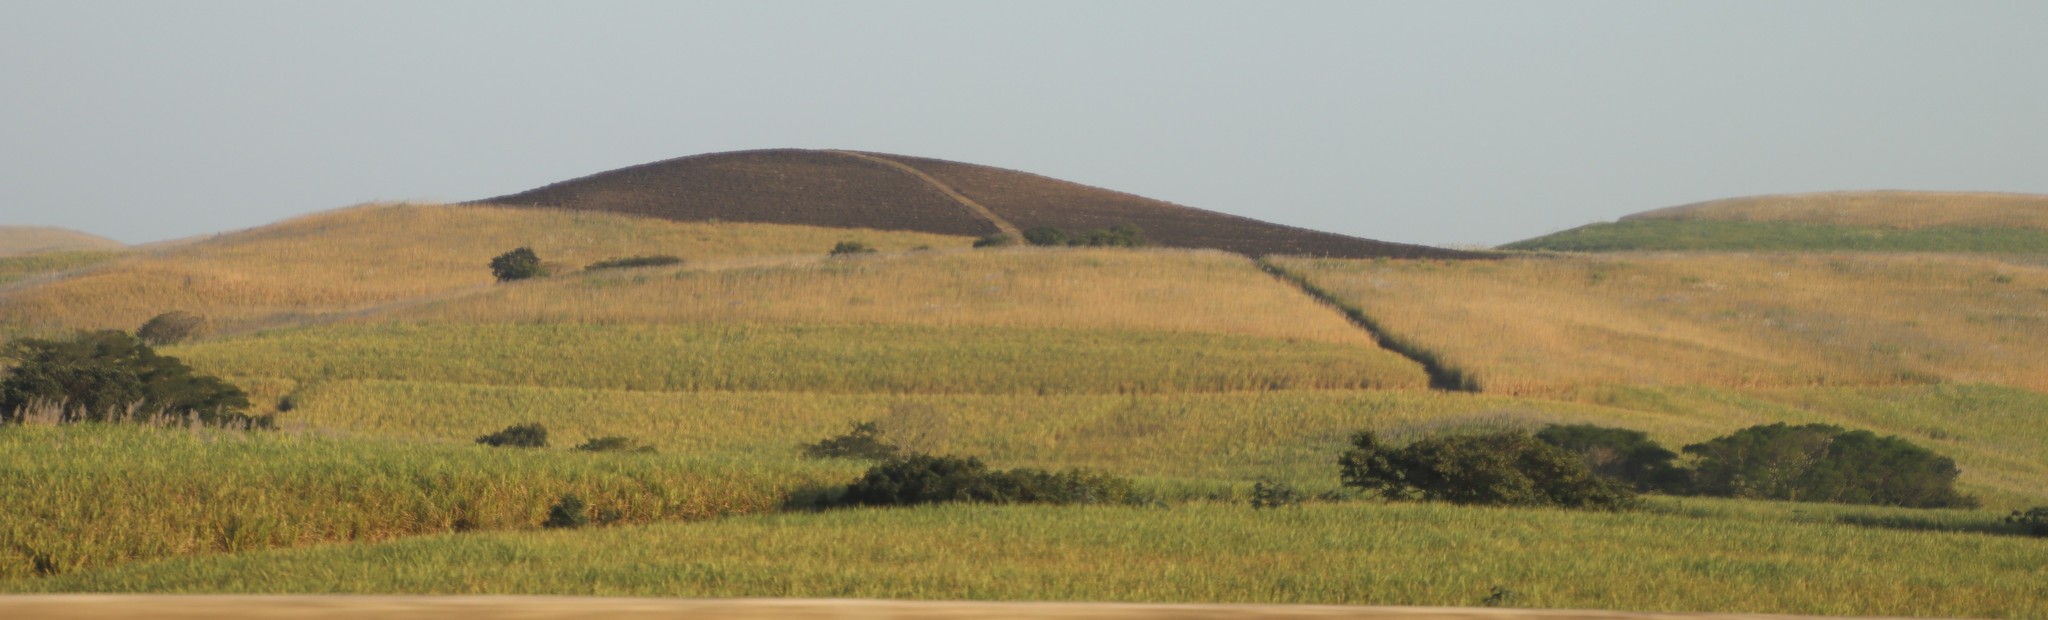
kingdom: Plantae
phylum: Tracheophyta
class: Liliopsida
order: Poales
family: Poaceae
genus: Saccharum
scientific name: Saccharum officinarum
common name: Sugarcane
